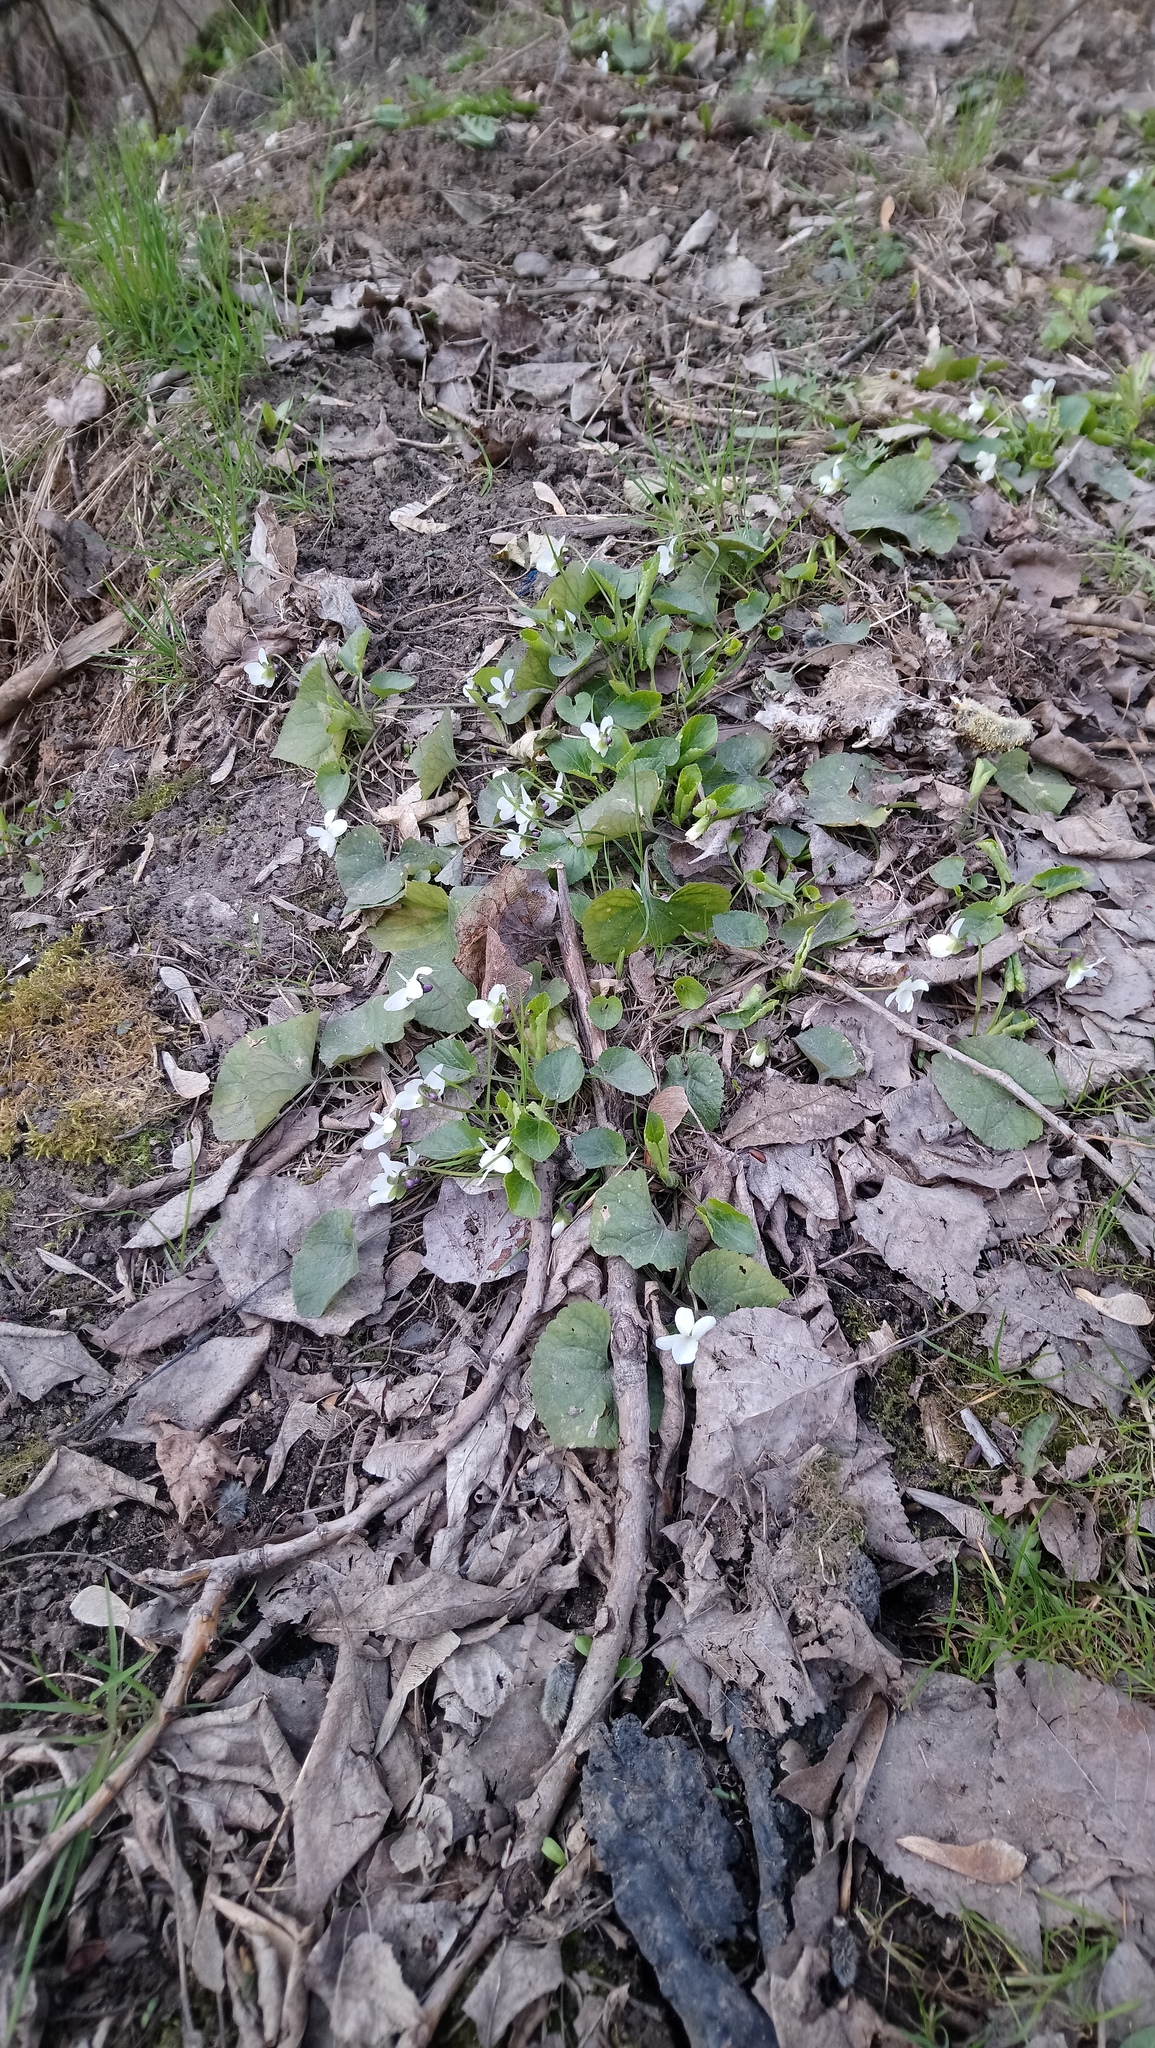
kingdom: Plantae
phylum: Tracheophyta
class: Magnoliopsida
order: Malpighiales
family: Violaceae
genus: Viola
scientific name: Viola odorata
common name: Sweet violet
